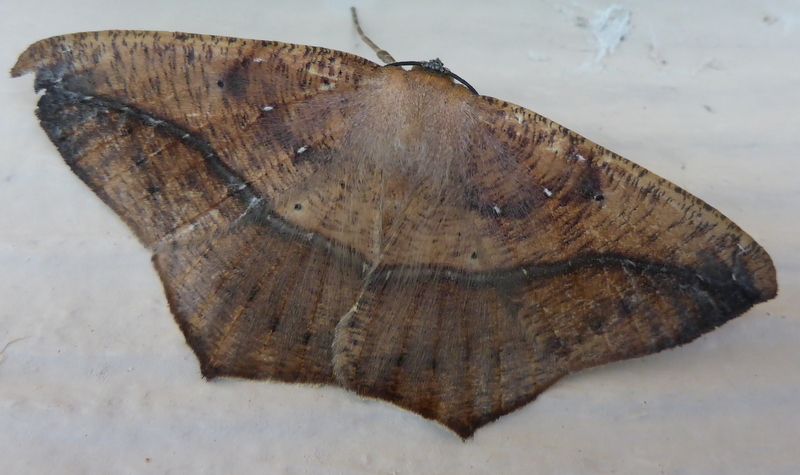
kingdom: Animalia
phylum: Arthropoda
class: Insecta
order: Lepidoptera
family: Geometridae
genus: Prochoerodes
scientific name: Prochoerodes lineola
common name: Large maple spanworm
